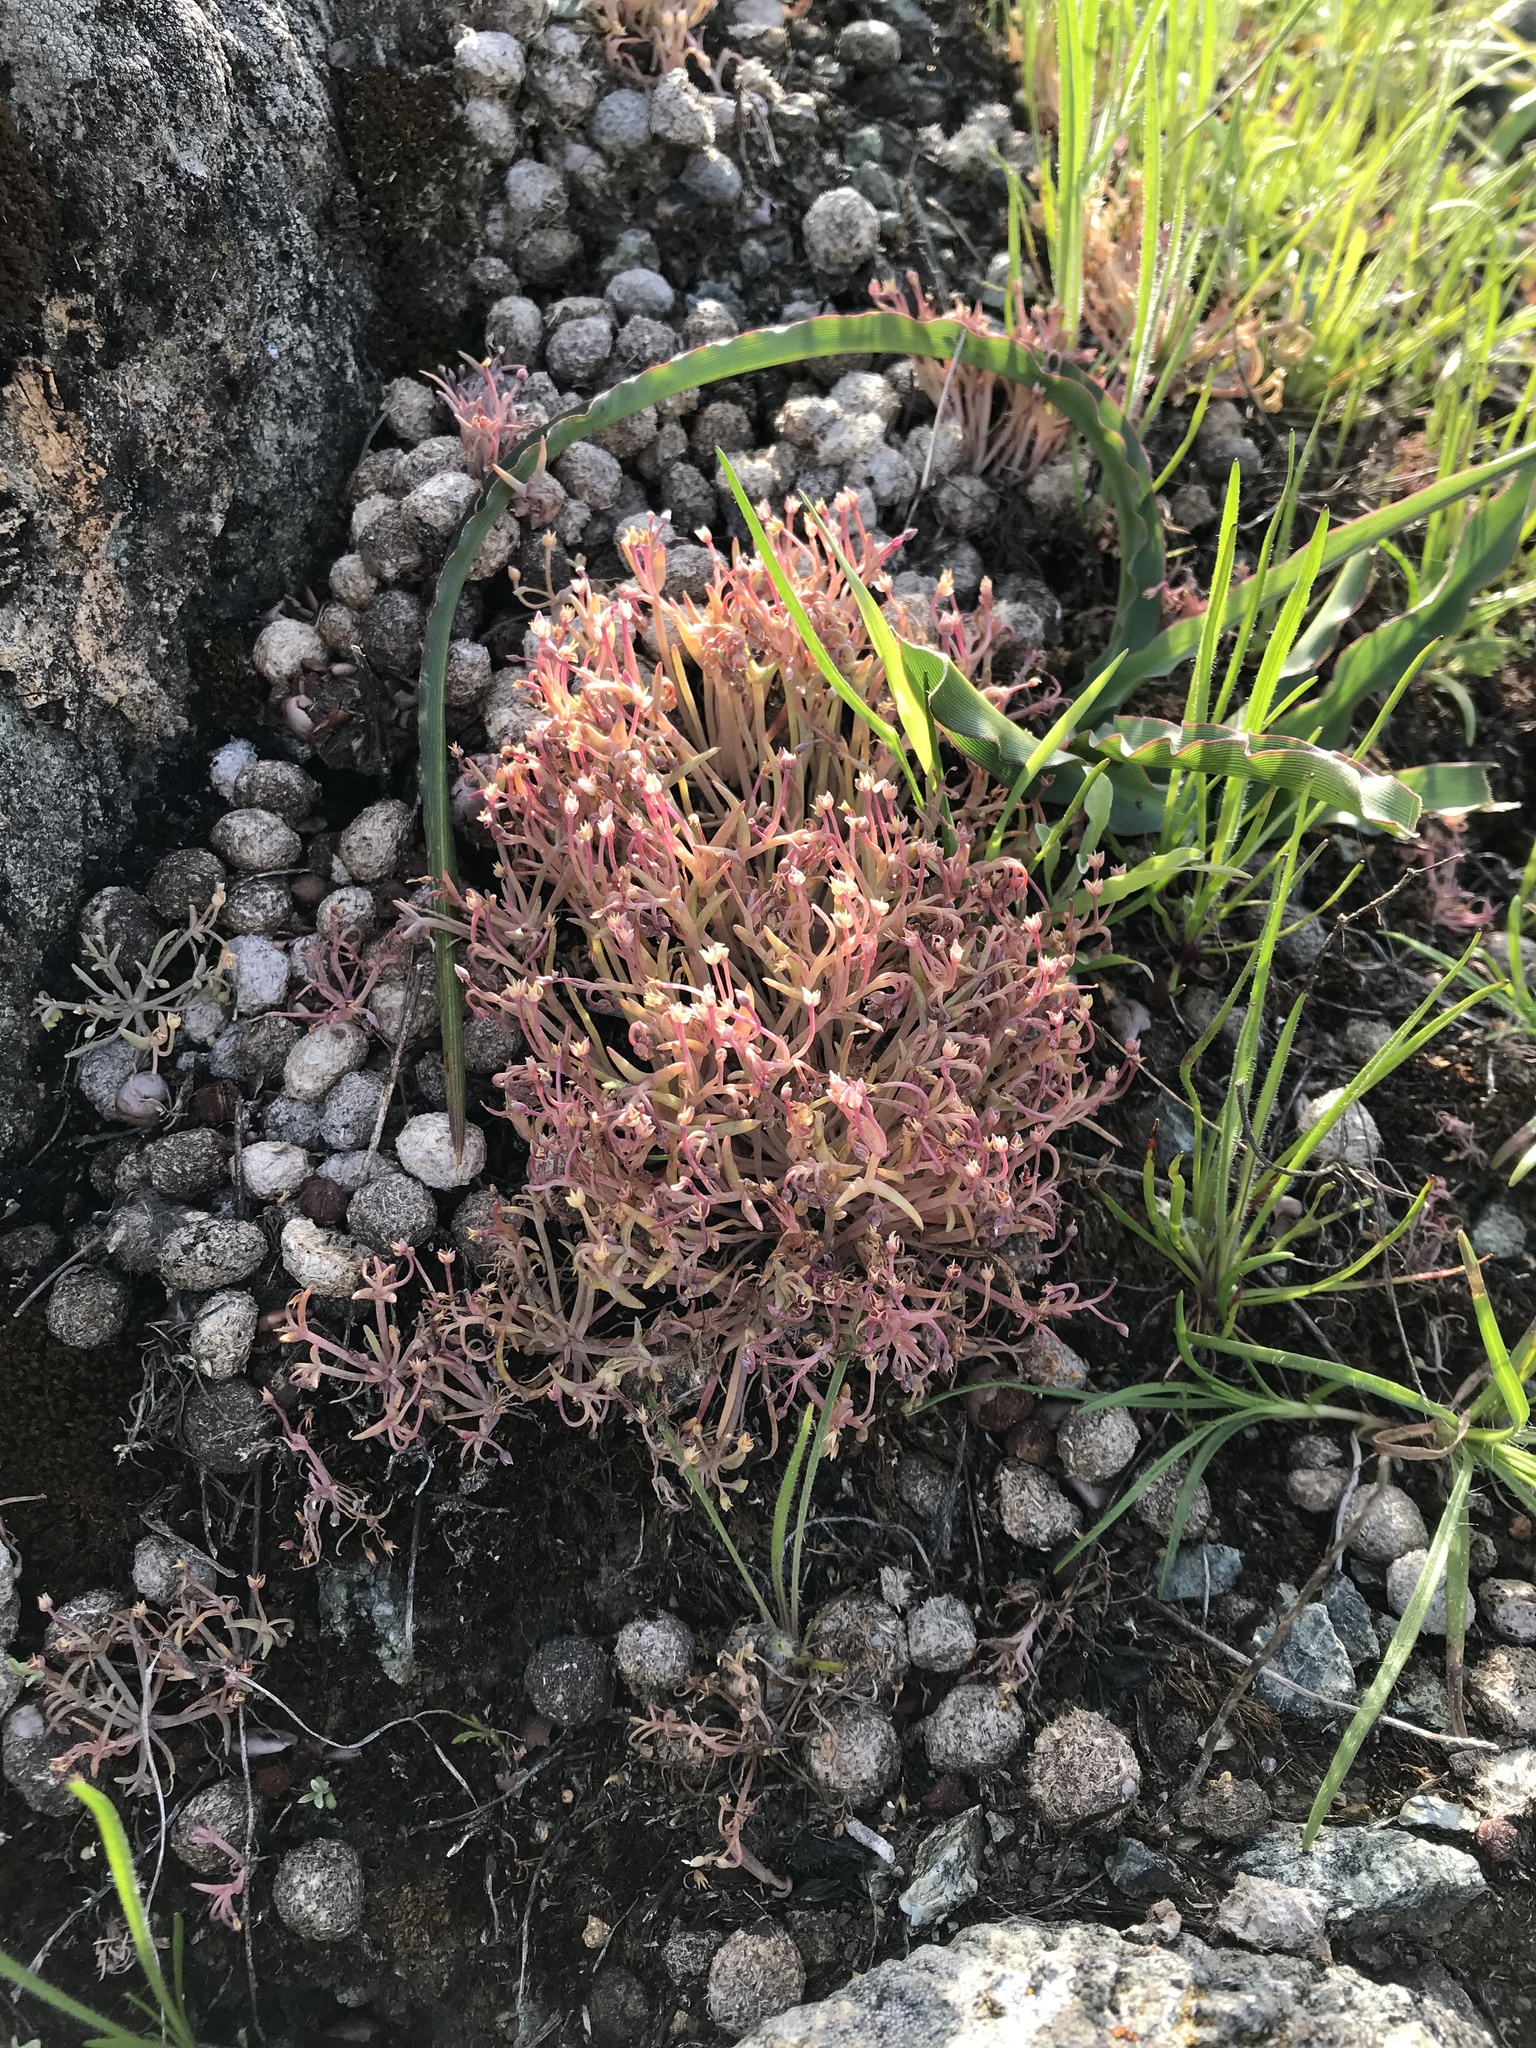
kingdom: Plantae
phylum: Tracheophyta
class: Magnoliopsida
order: Caryophyllales
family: Montiaceae
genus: Claytonia
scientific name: Claytonia gypsophiloides
